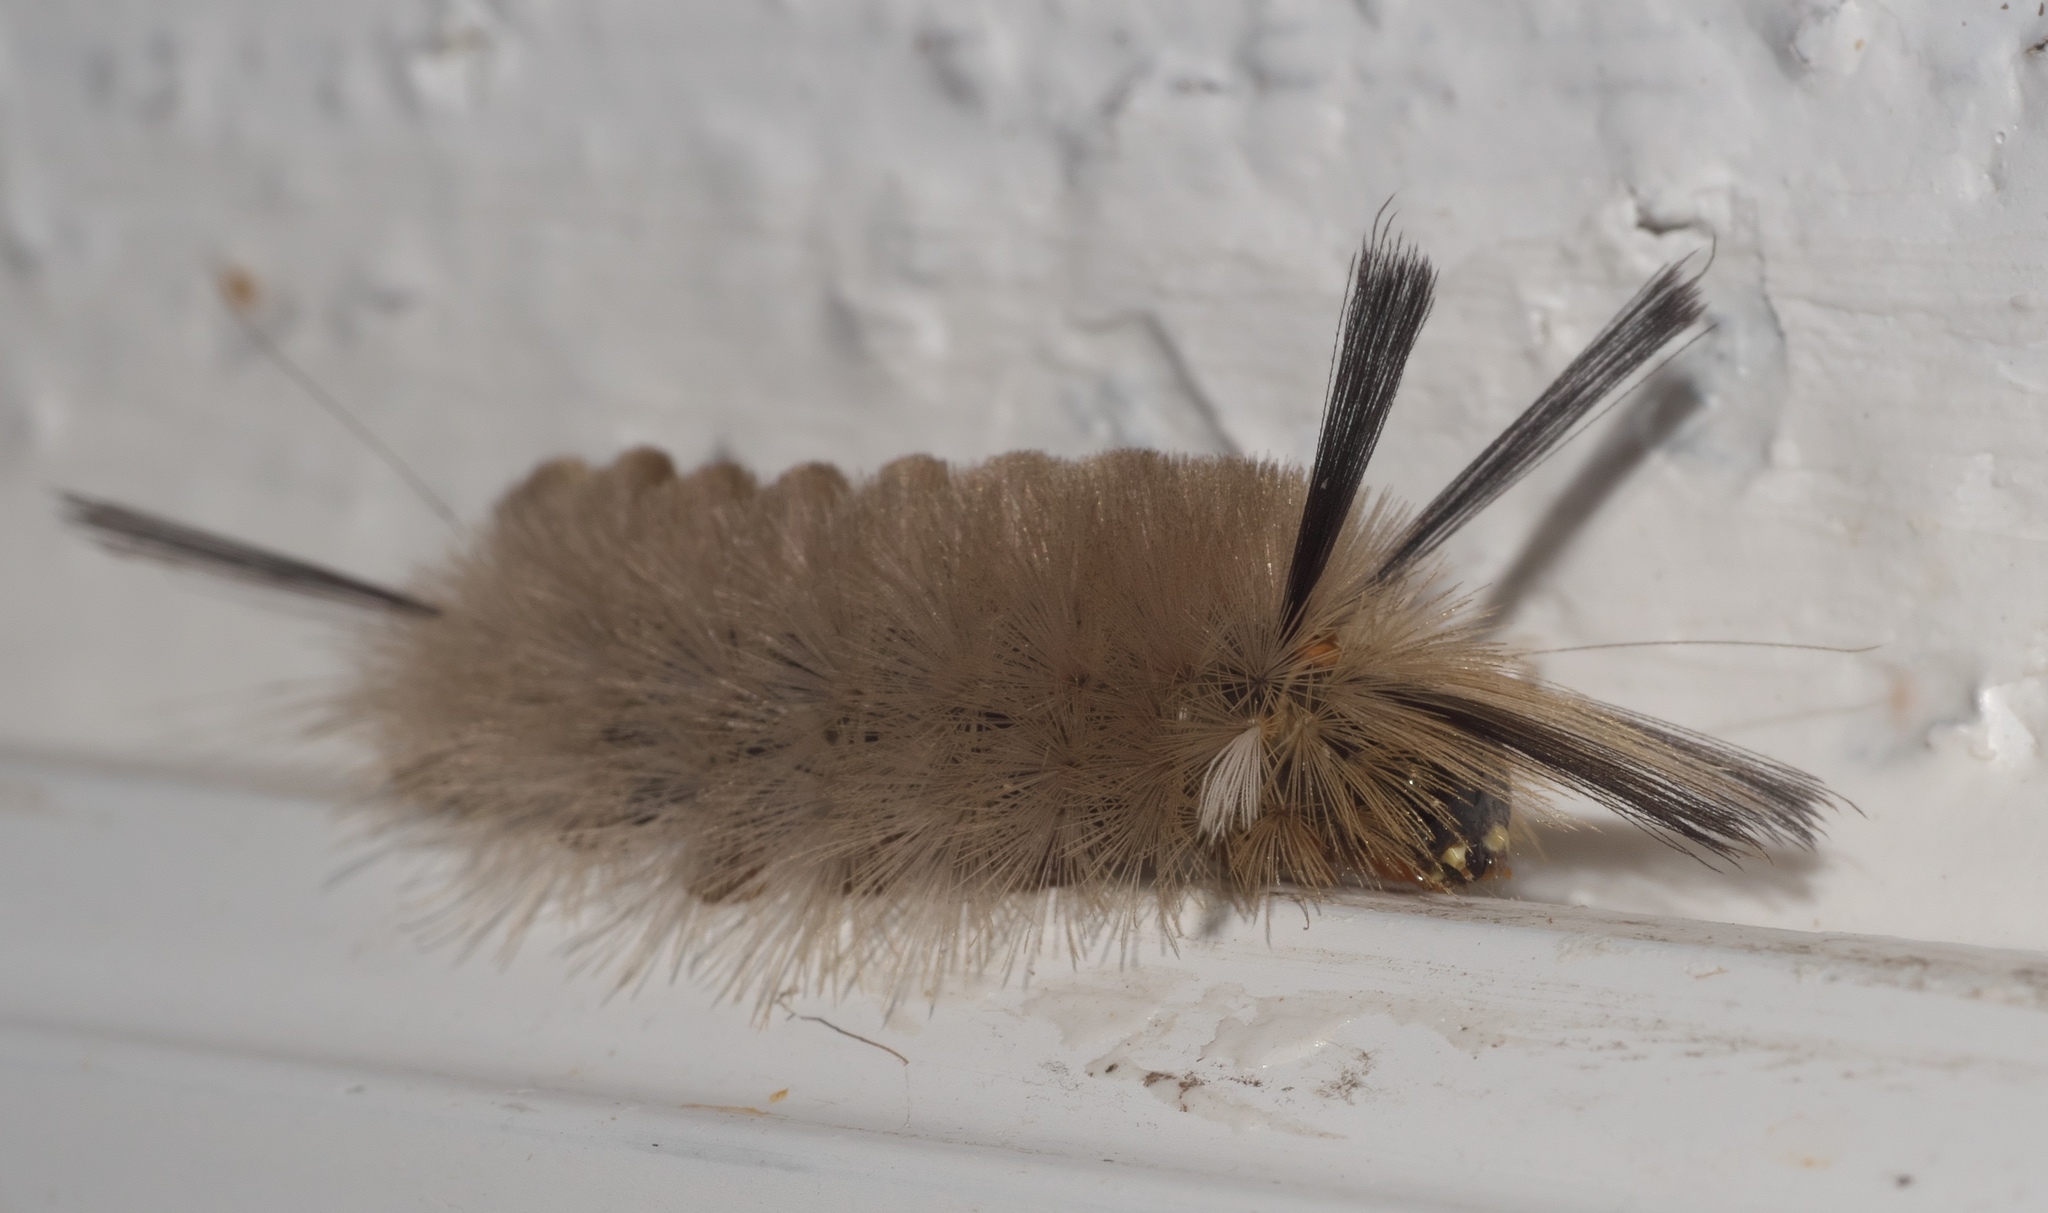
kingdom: Animalia
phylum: Arthropoda
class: Insecta
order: Lepidoptera
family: Erebidae
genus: Halysidota
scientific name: Halysidota tessellaris
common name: Banded tussock moth
